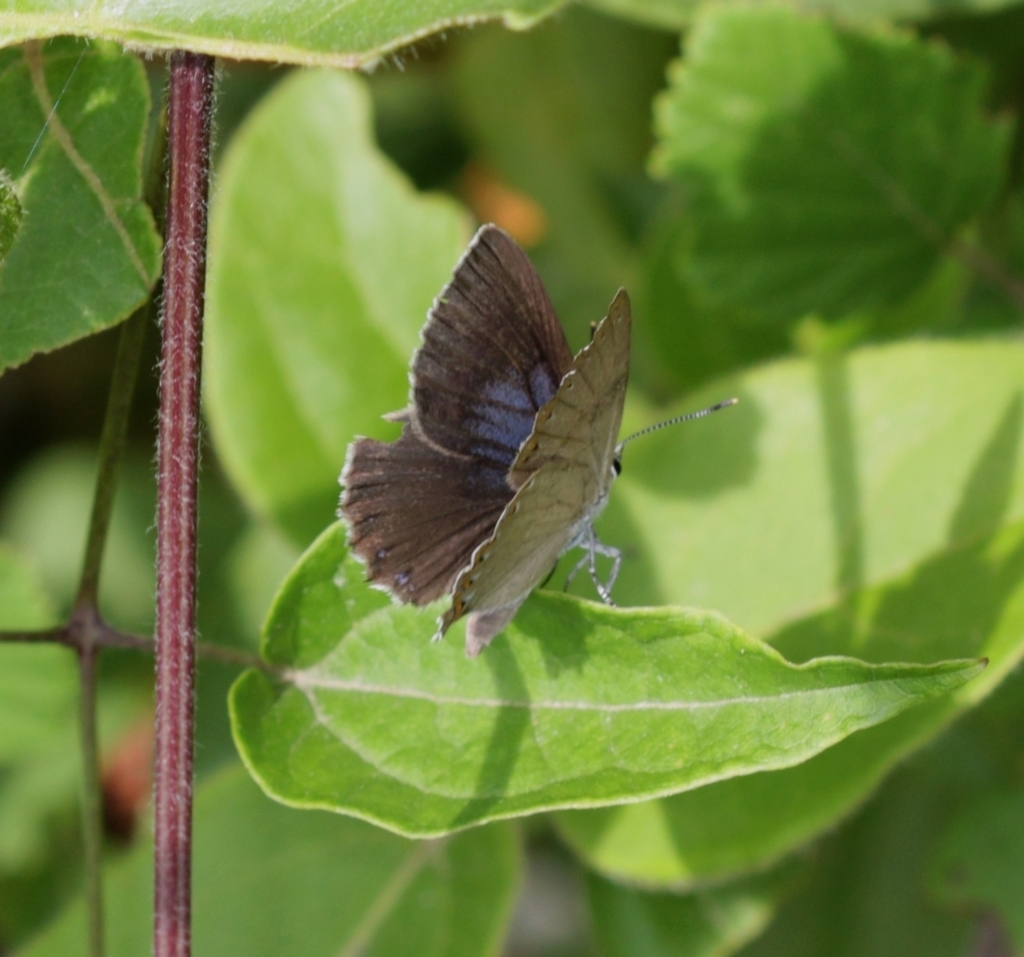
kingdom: Animalia
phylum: Arthropoda
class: Insecta
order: Lepidoptera
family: Lycaenidae
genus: Laeosopis
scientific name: Laeosopis roboris
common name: Spanish purple hairstreak
